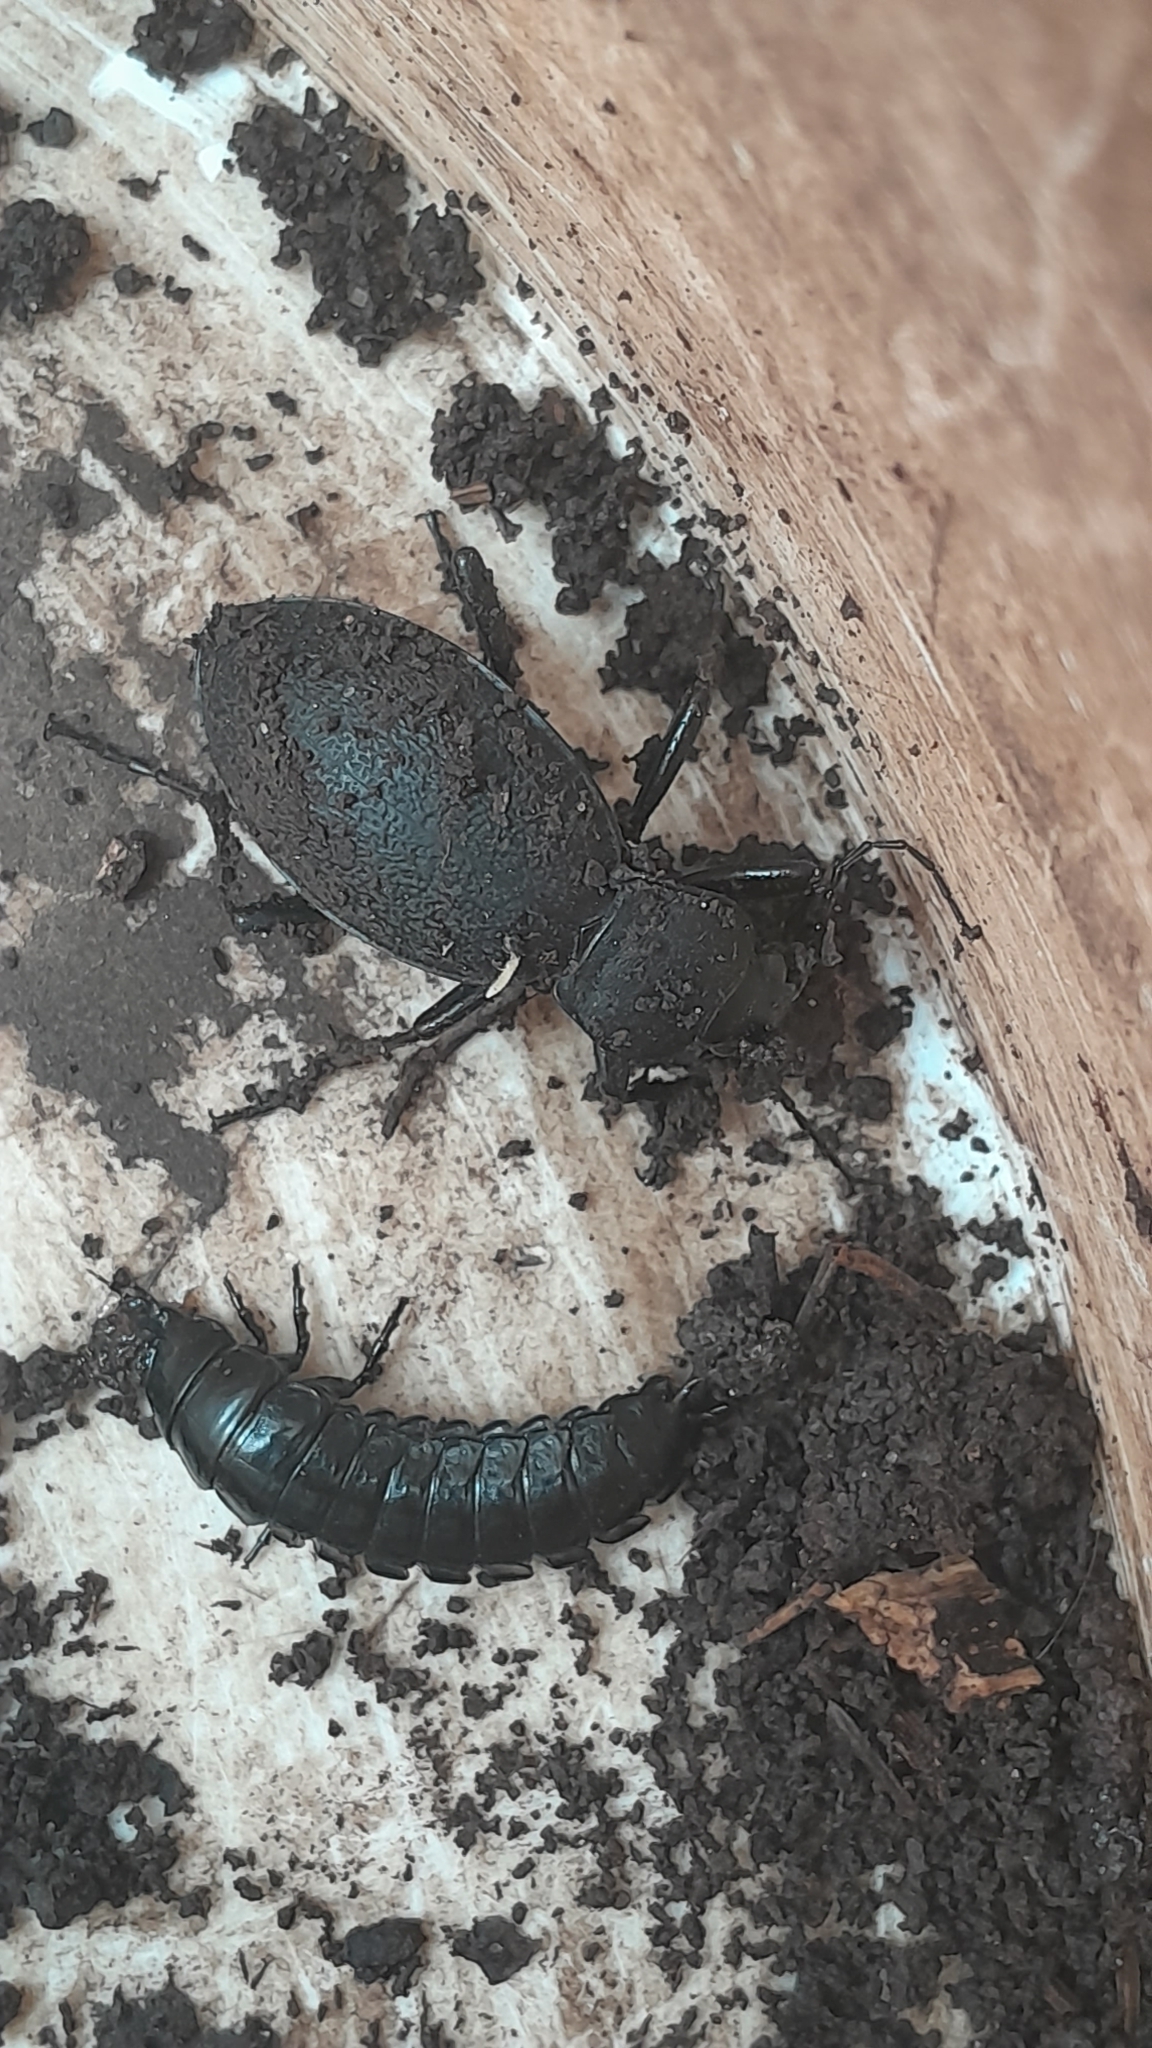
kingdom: Animalia
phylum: Arthropoda
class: Insecta
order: Coleoptera
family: Carabidae
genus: Carabus
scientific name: Carabus coriaceus
